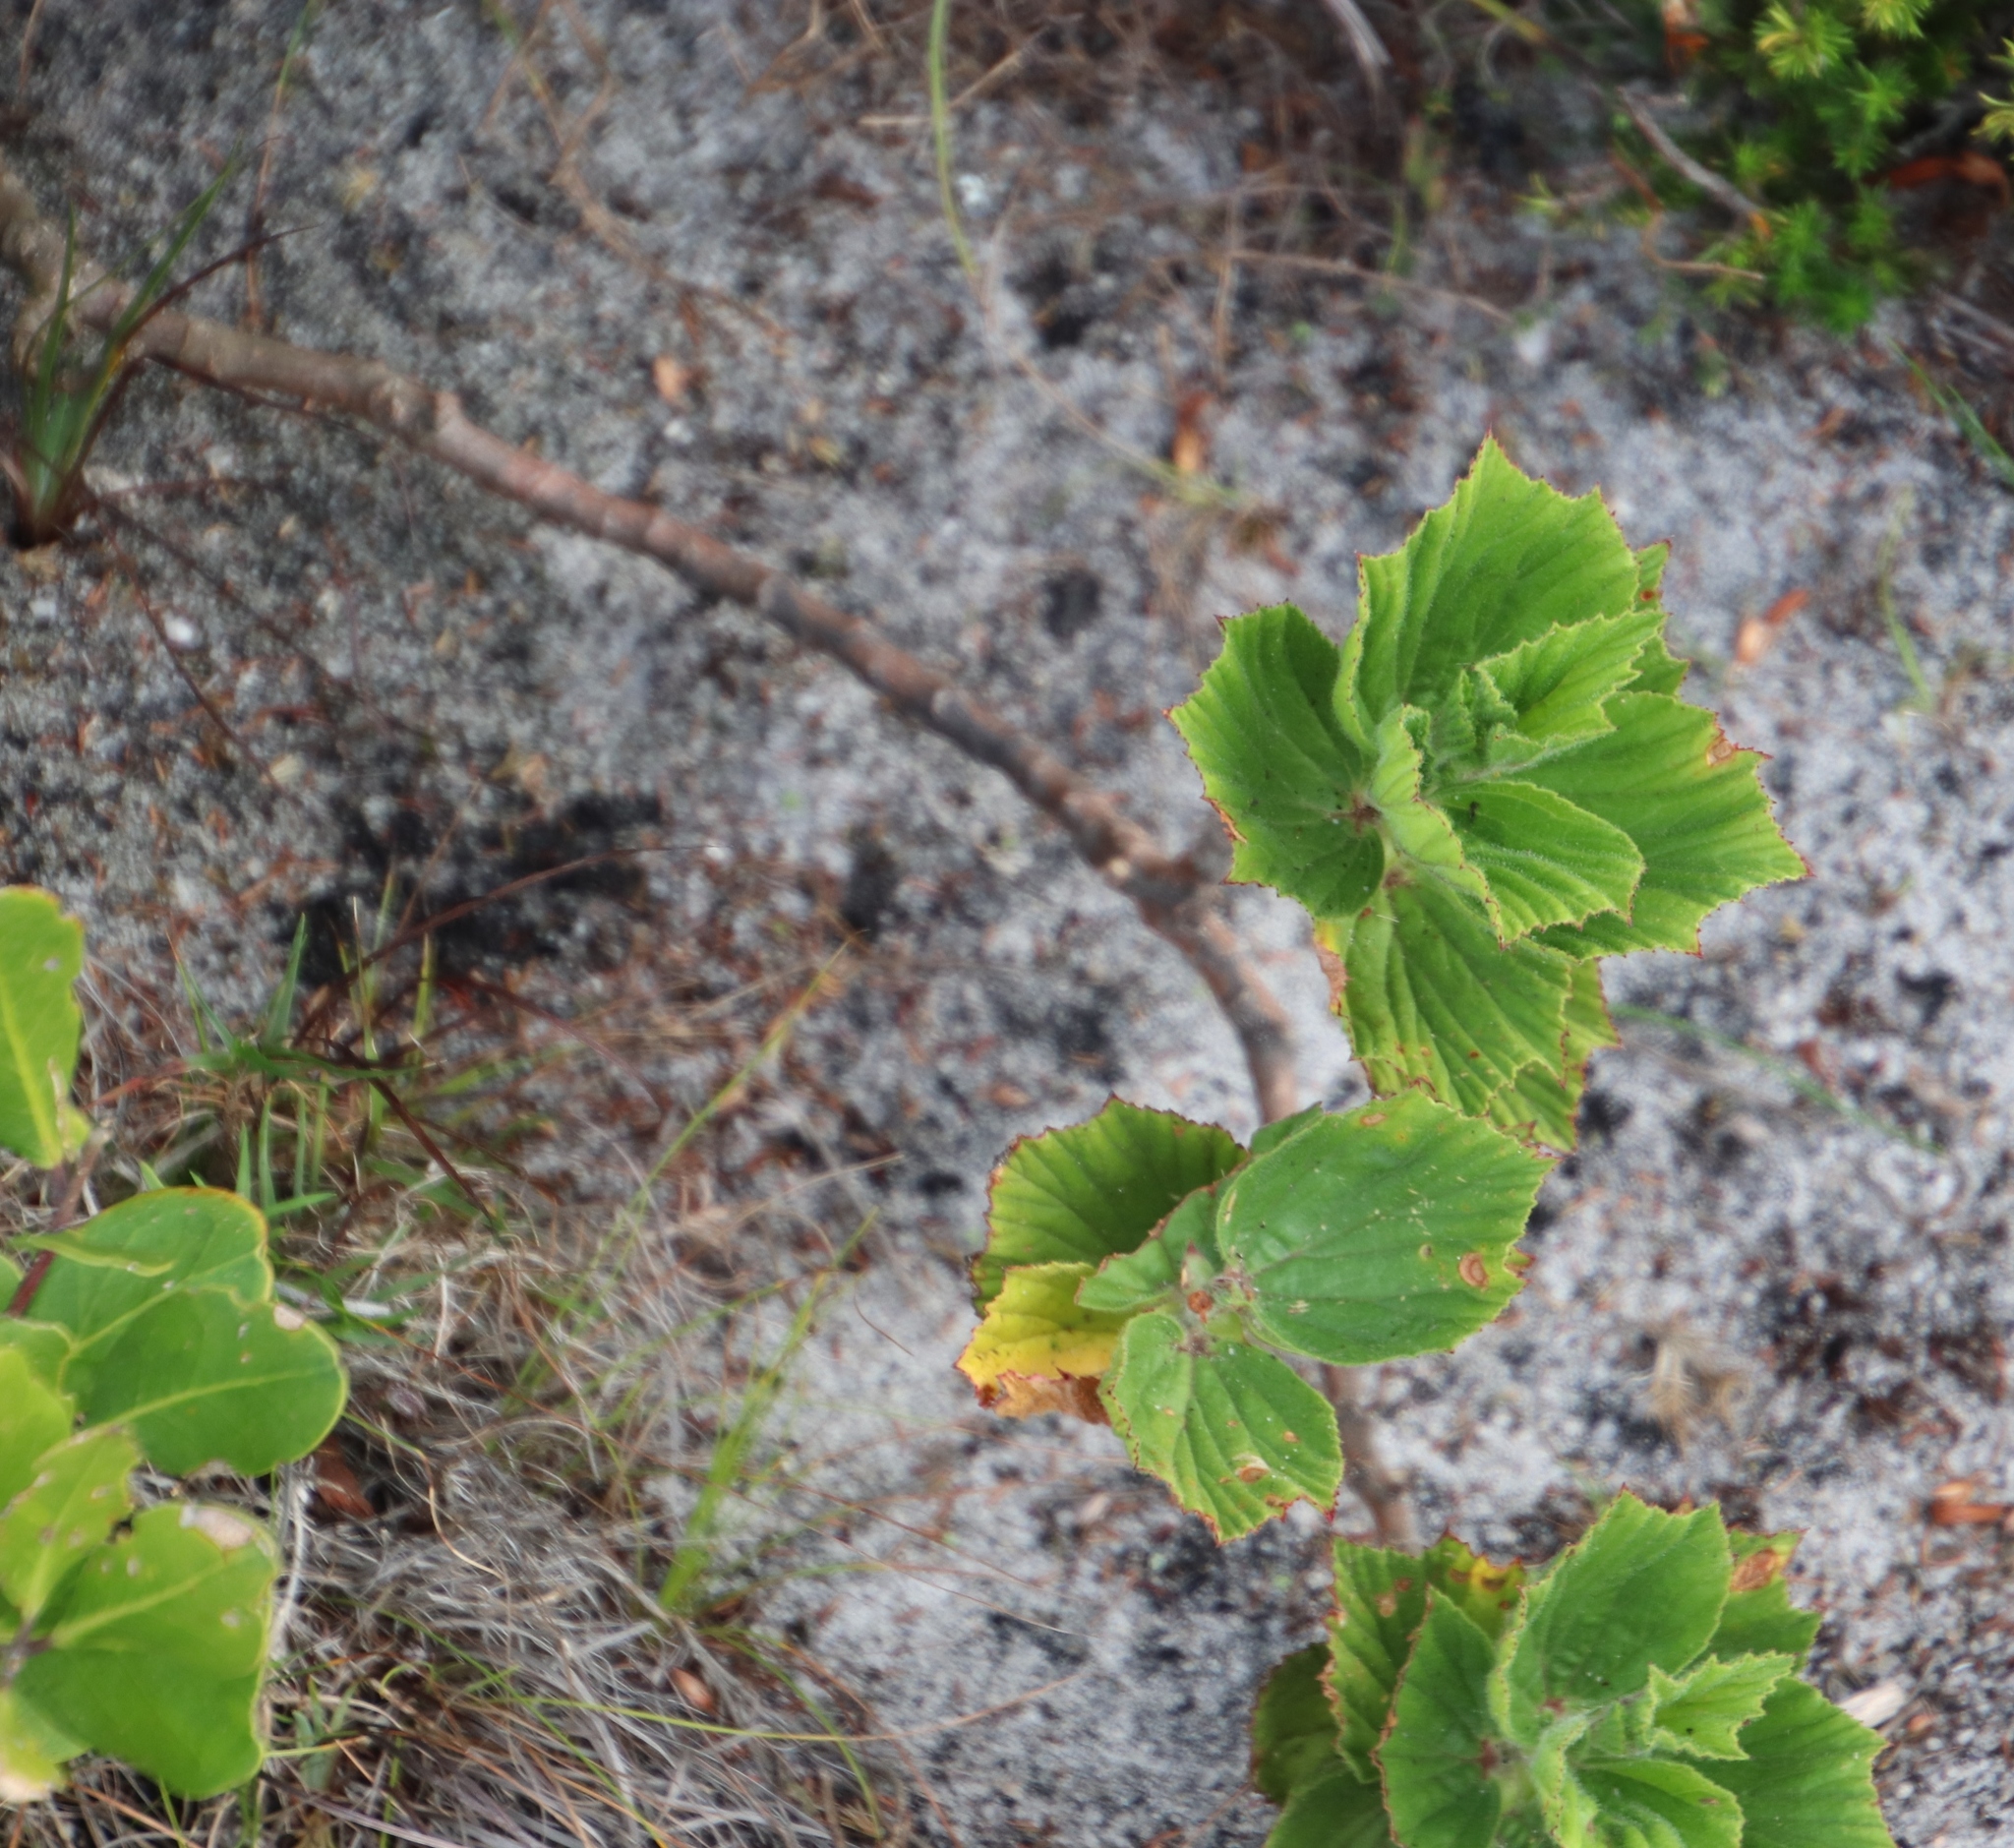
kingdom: Plantae
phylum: Tracheophyta
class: Magnoliopsida
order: Geraniales
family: Geraniaceae
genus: Pelargonium
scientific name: Pelargonium cucullatum
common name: Tree pelargonium
